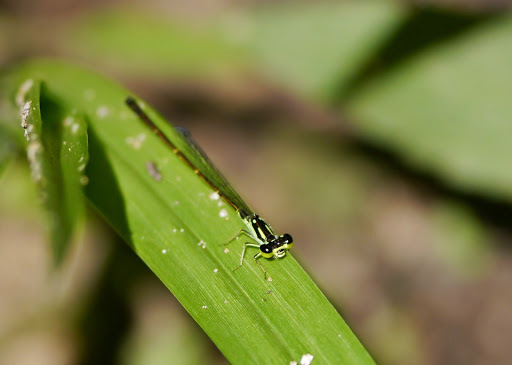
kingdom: Animalia
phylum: Arthropoda
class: Insecta
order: Odonata
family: Coenagrionidae
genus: Ischnura
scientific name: Ischnura posita
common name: Fragile forktail
